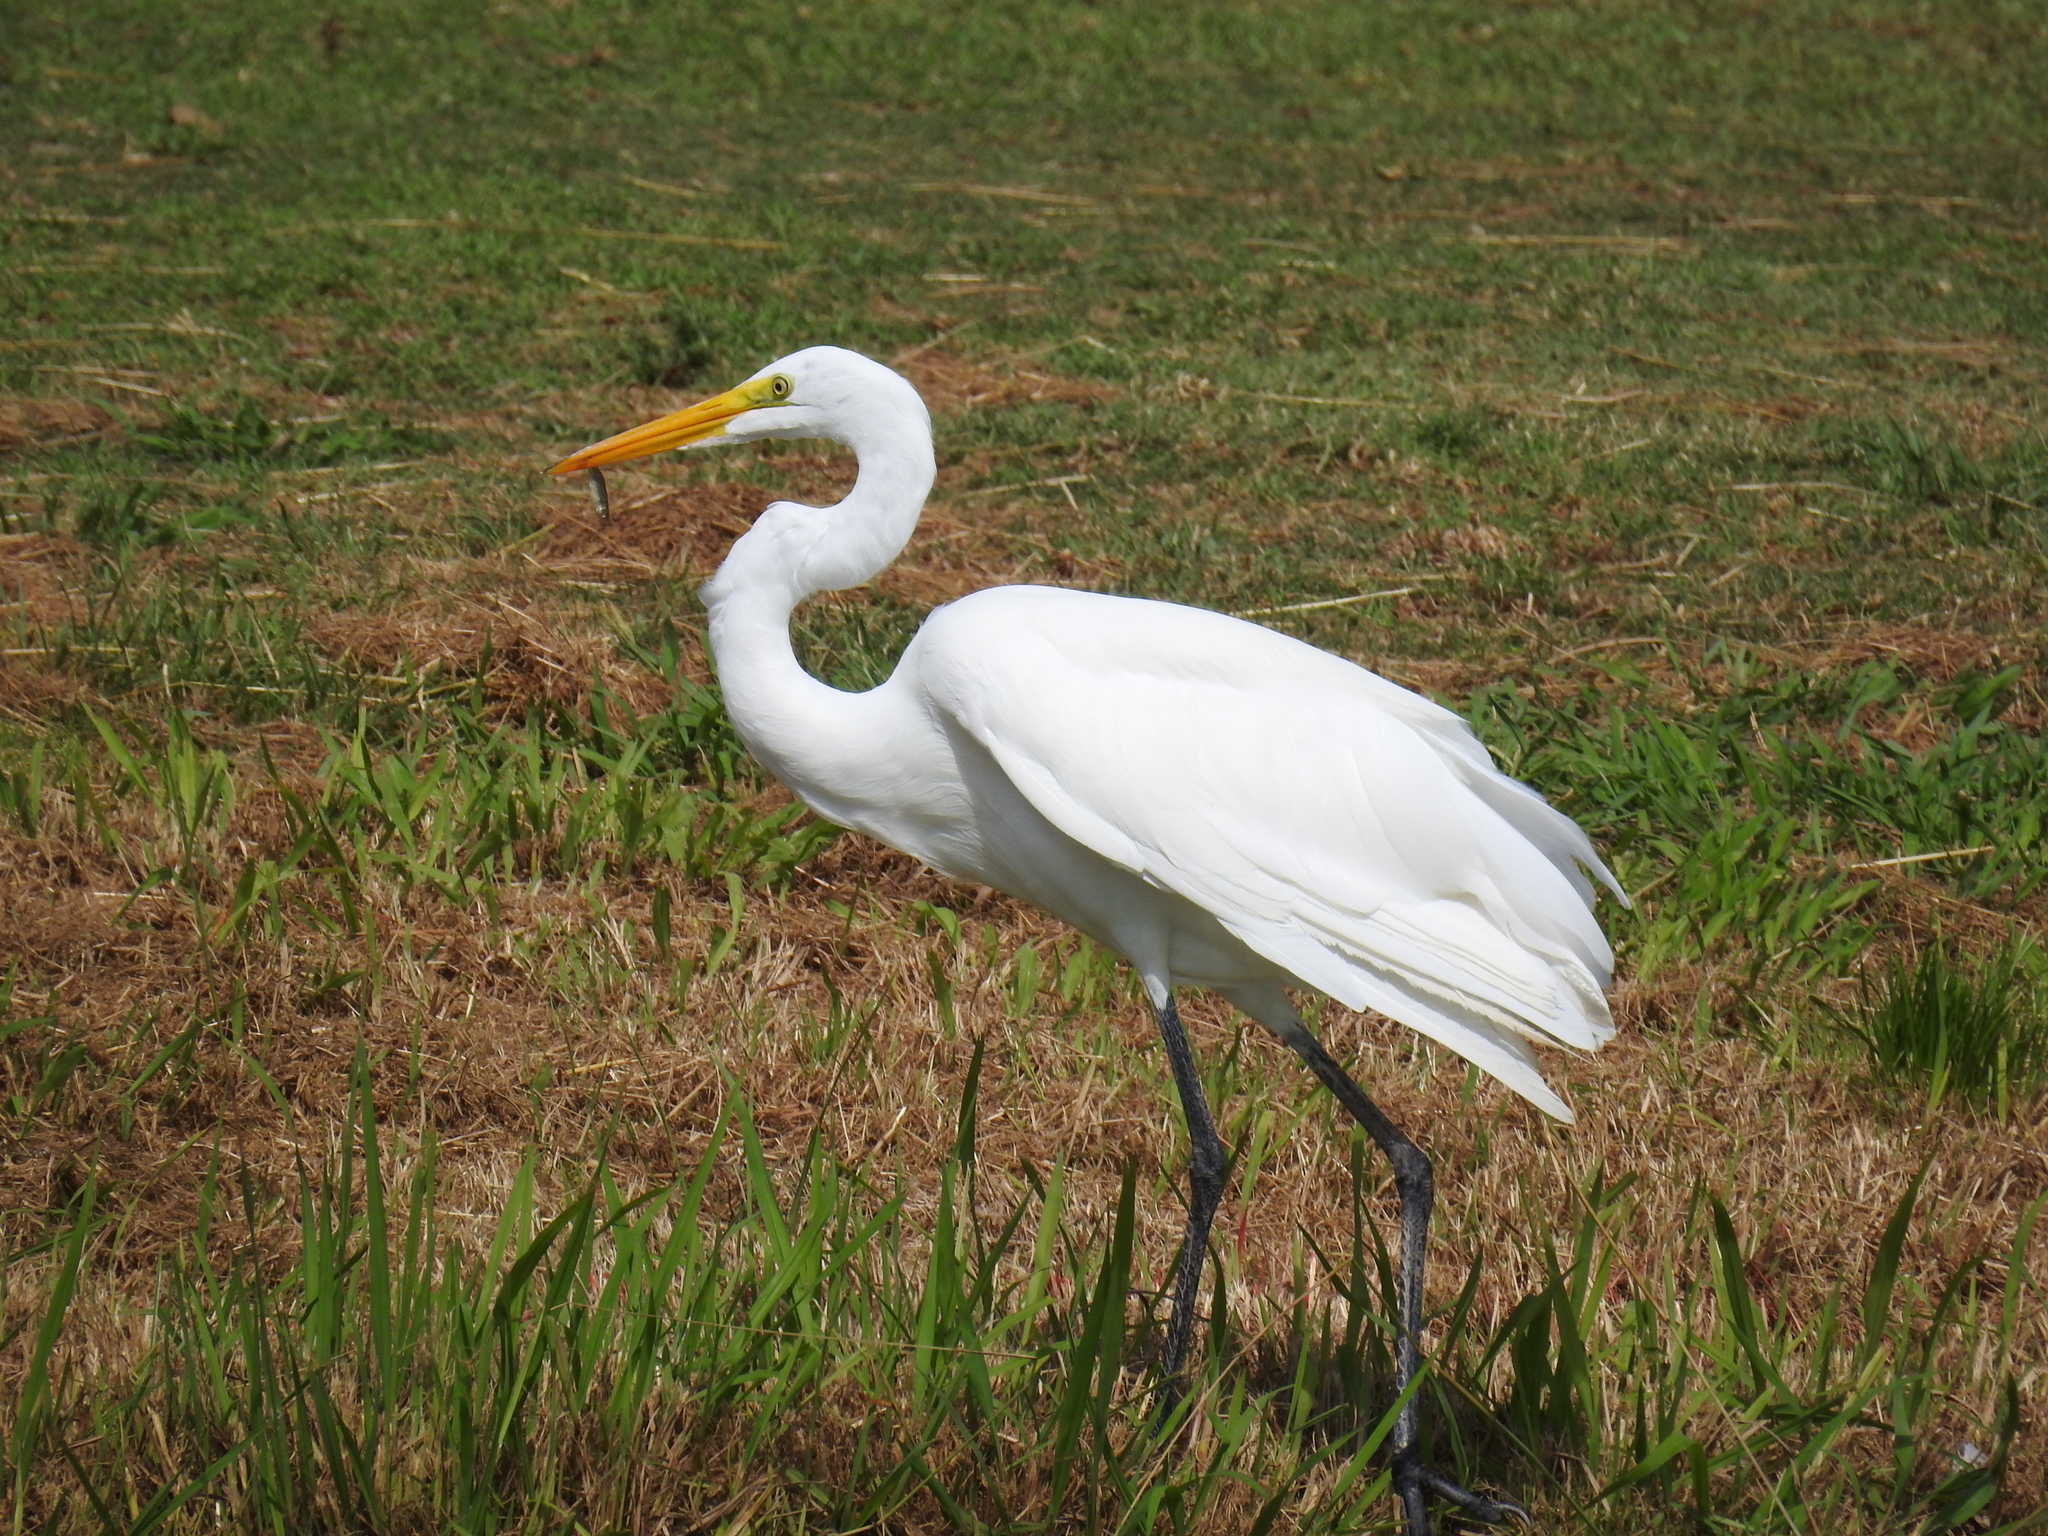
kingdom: Animalia
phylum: Chordata
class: Aves
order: Pelecaniformes
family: Ardeidae
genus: Ardea
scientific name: Ardea alba
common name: Great egret
